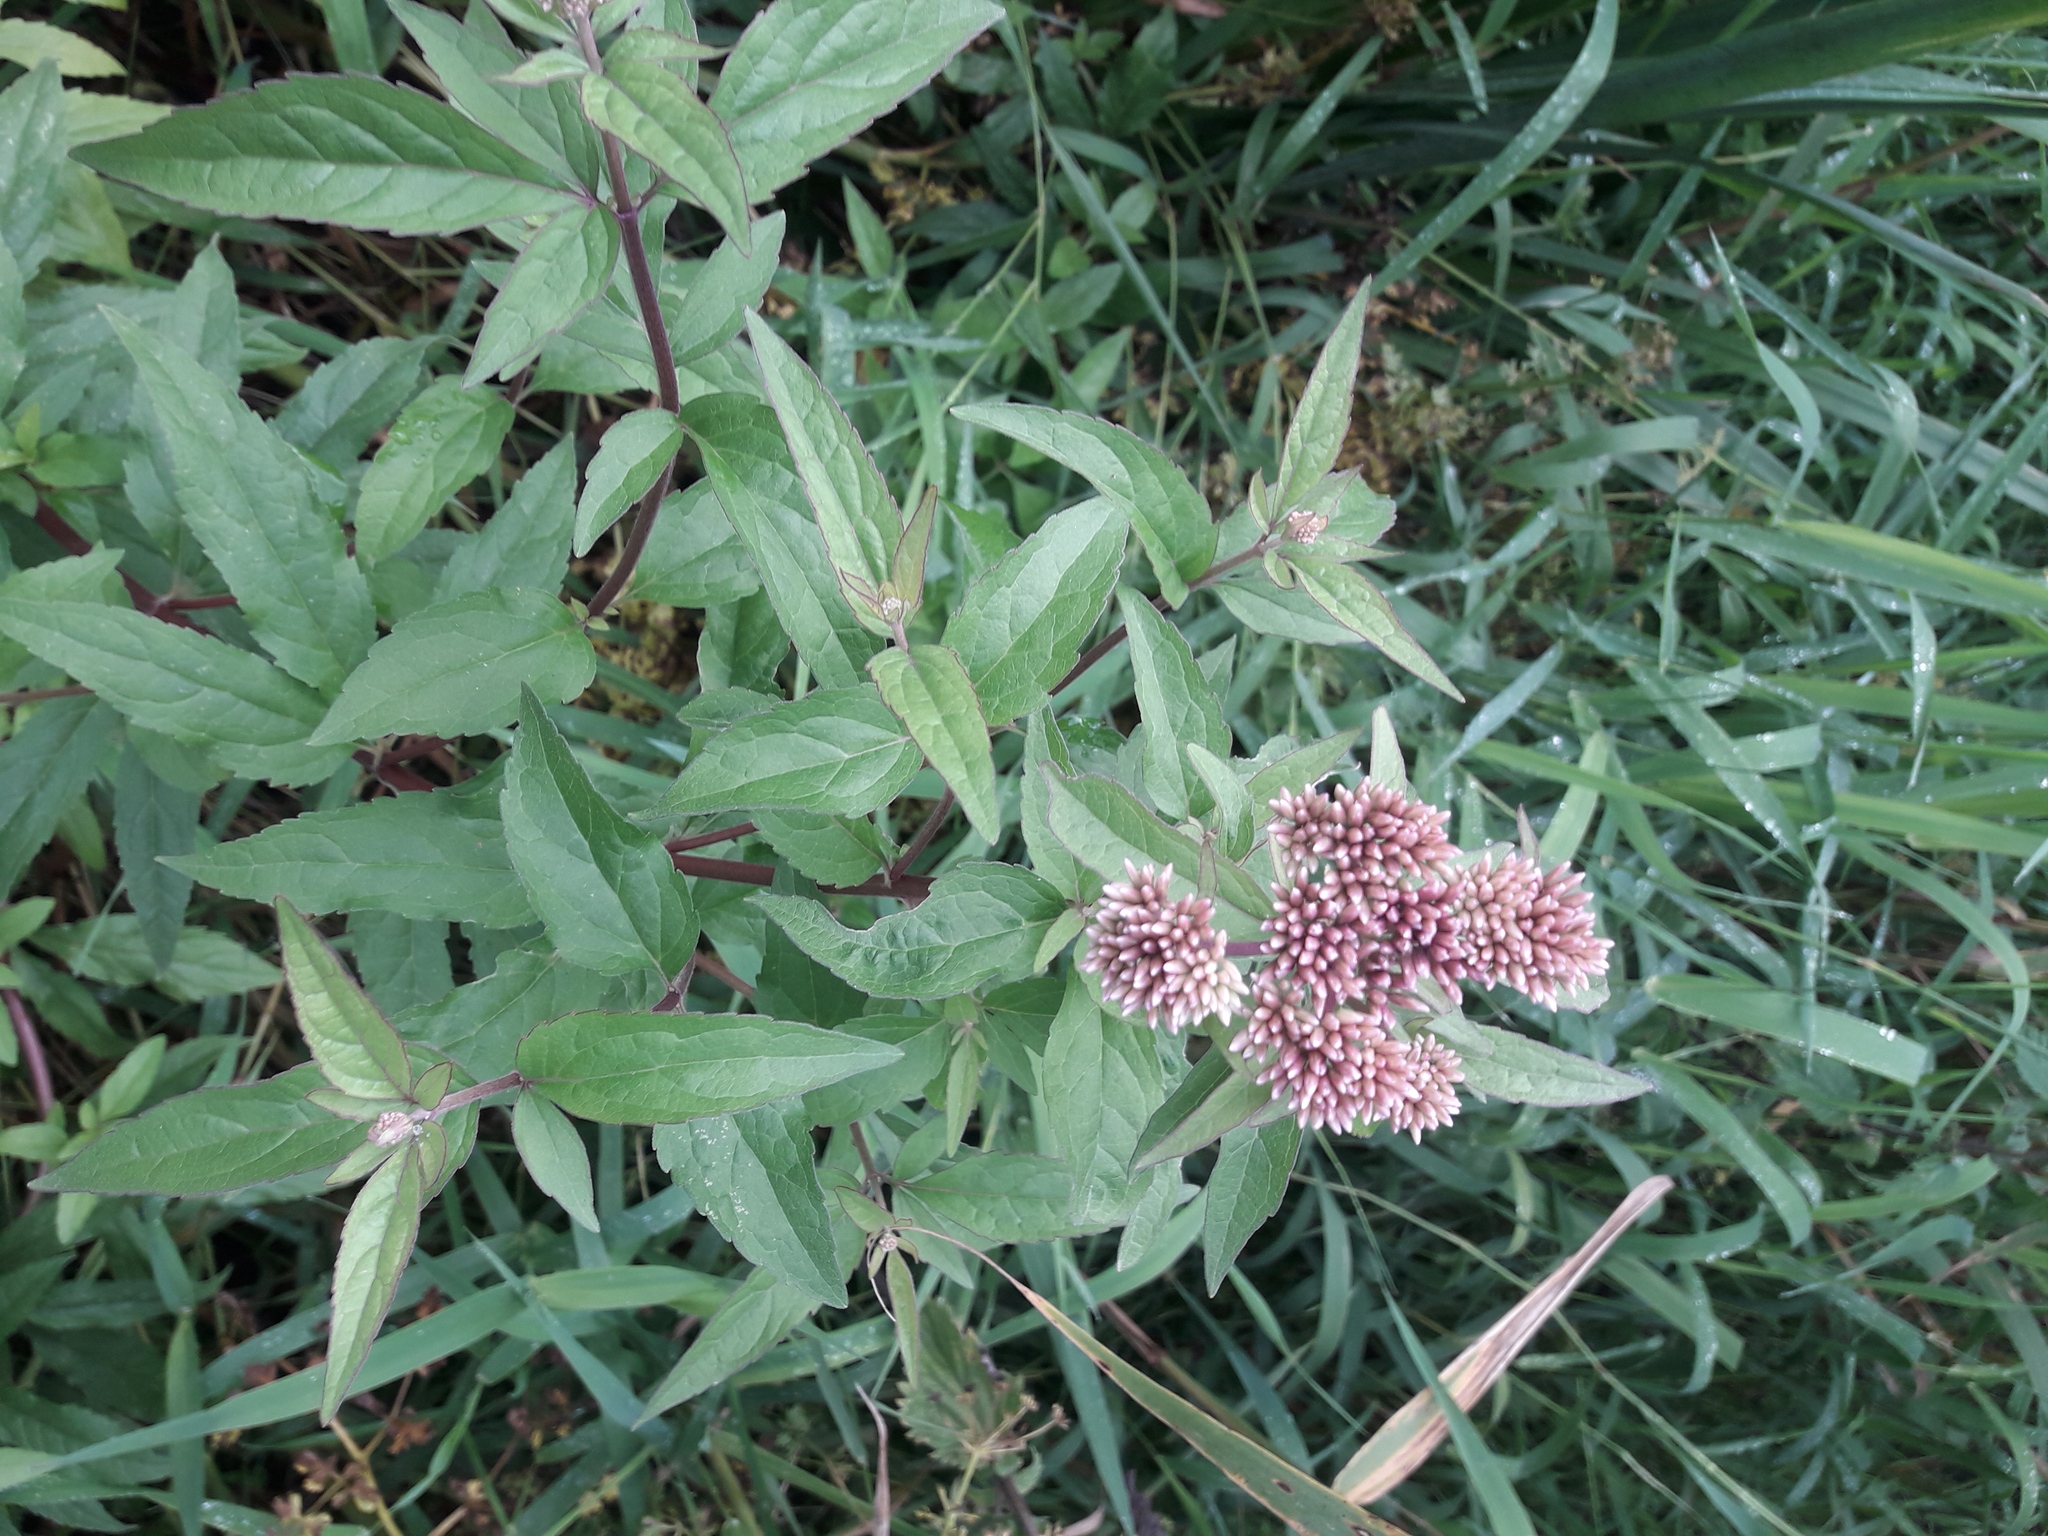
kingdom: Plantae
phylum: Tracheophyta
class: Liliopsida
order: Asparagales
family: Iridaceae
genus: Iris
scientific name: Iris pseudacorus
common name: Yellow flag
